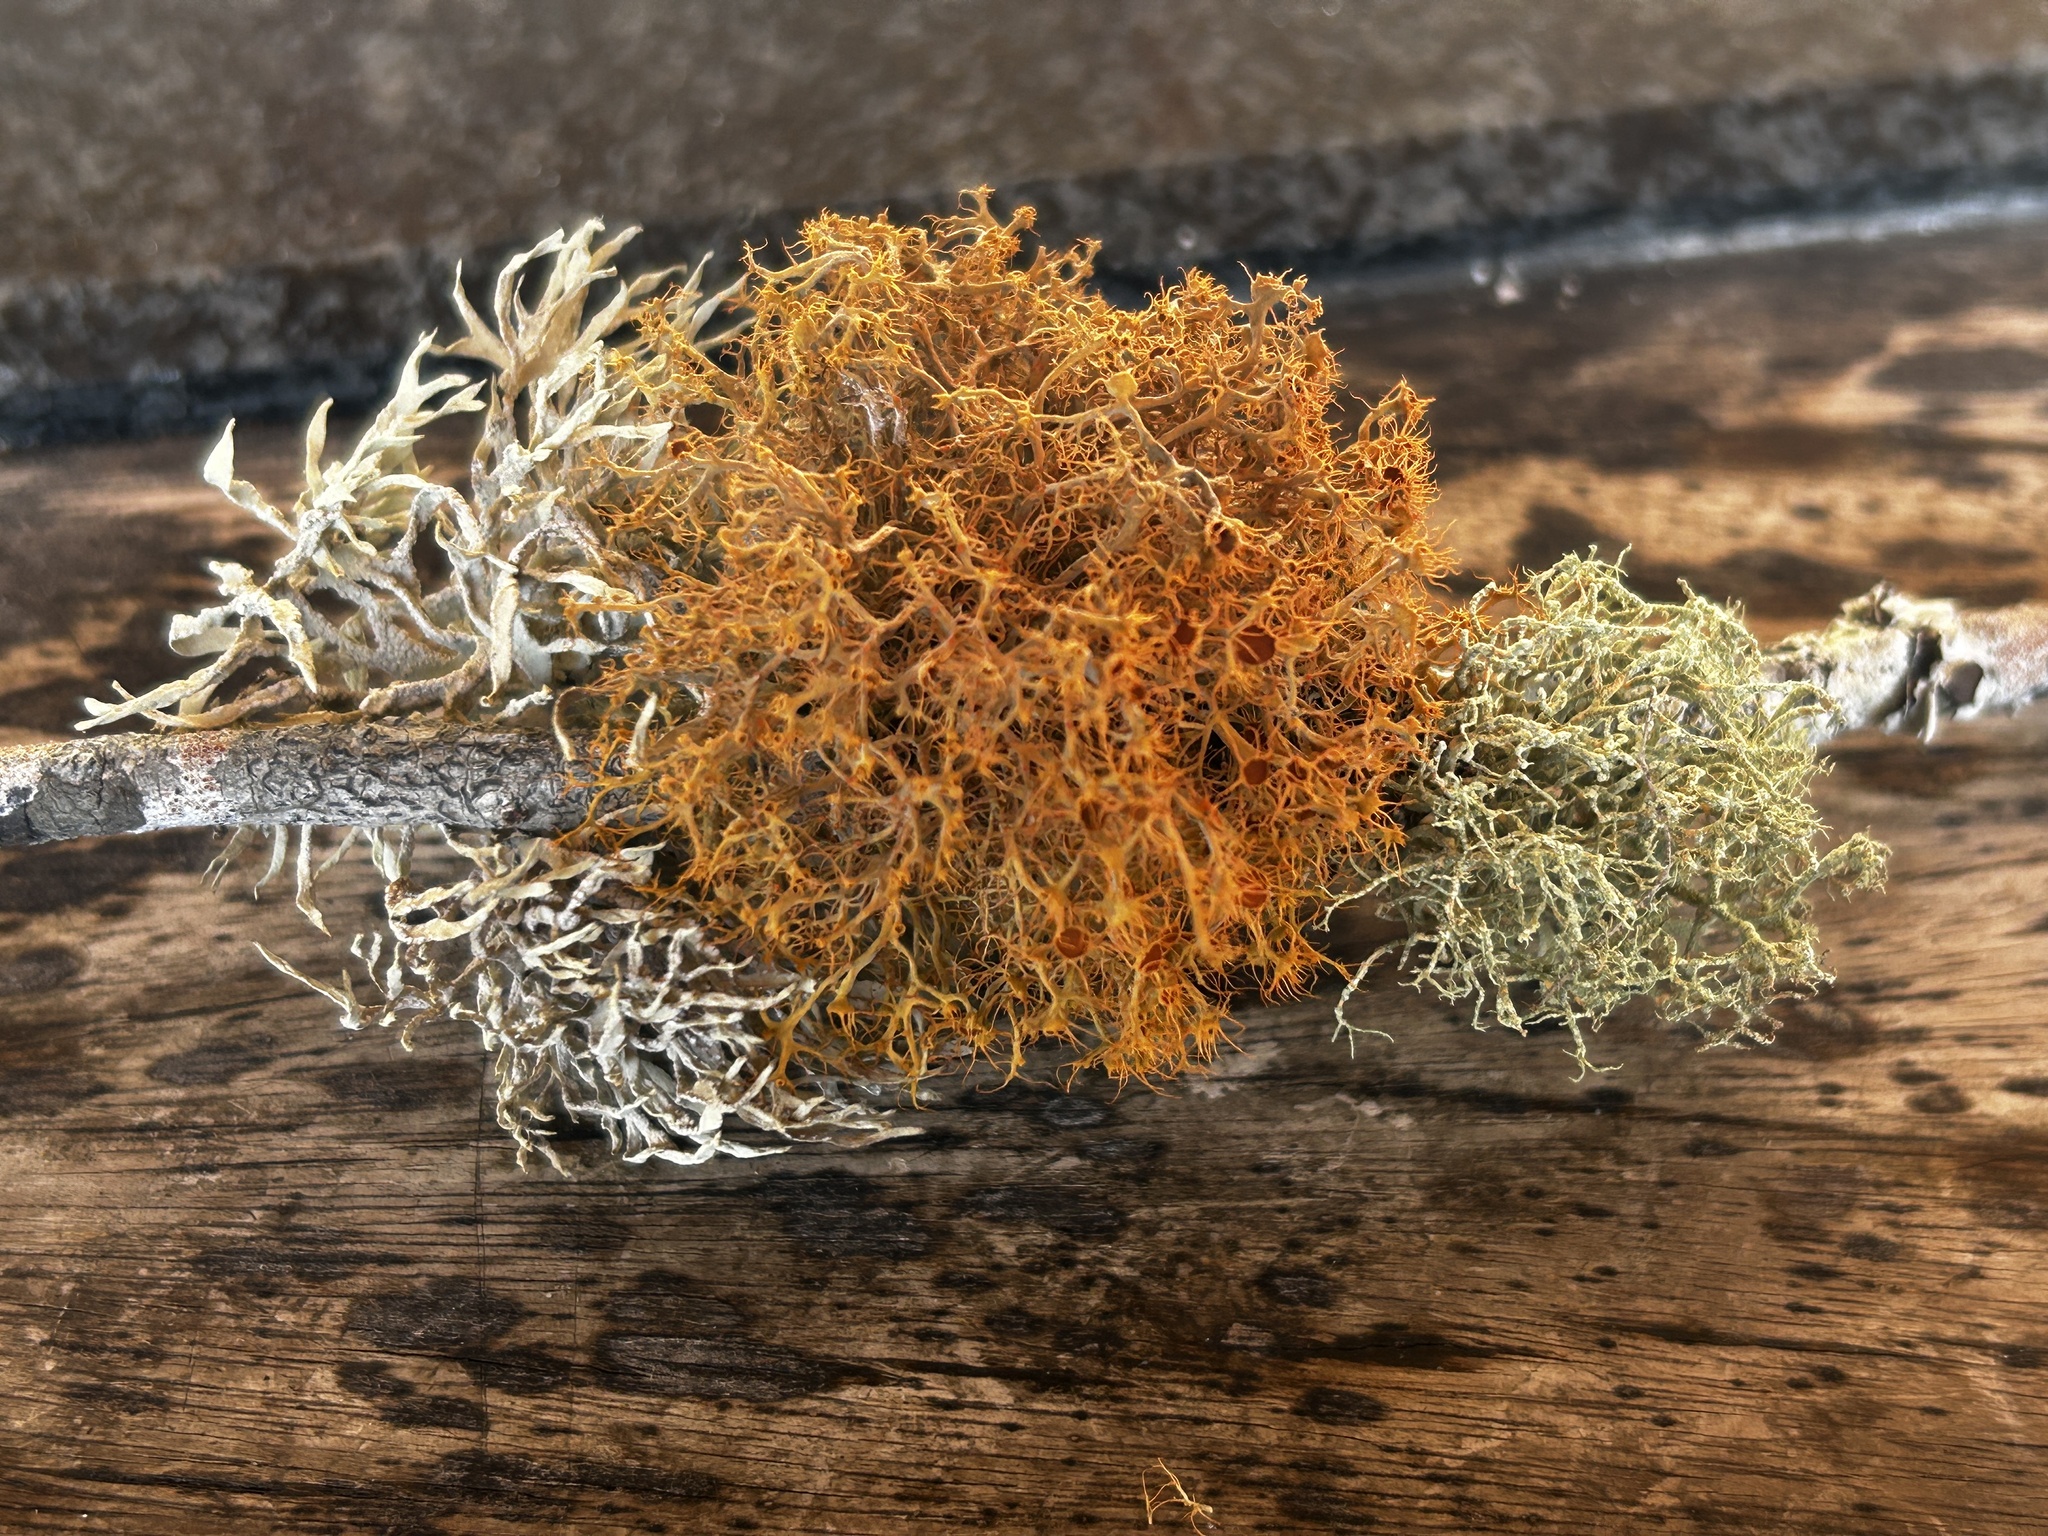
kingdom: Fungi
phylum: Ascomycota
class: Arthoniomycetes
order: Arthoniales
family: Roccellaceae
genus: Roccella
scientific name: Roccella montagnei
